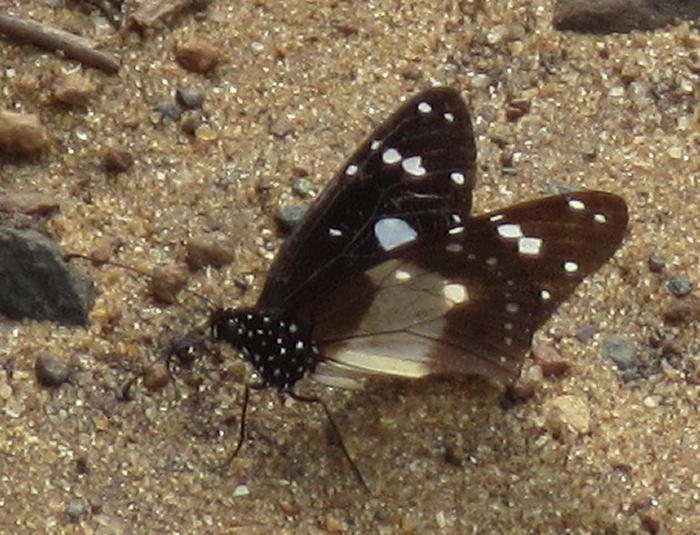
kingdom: Animalia
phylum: Arthropoda
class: Insecta
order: Lepidoptera
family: Nymphalidae
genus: Amauris
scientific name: Amauris albimaculata
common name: Layman
